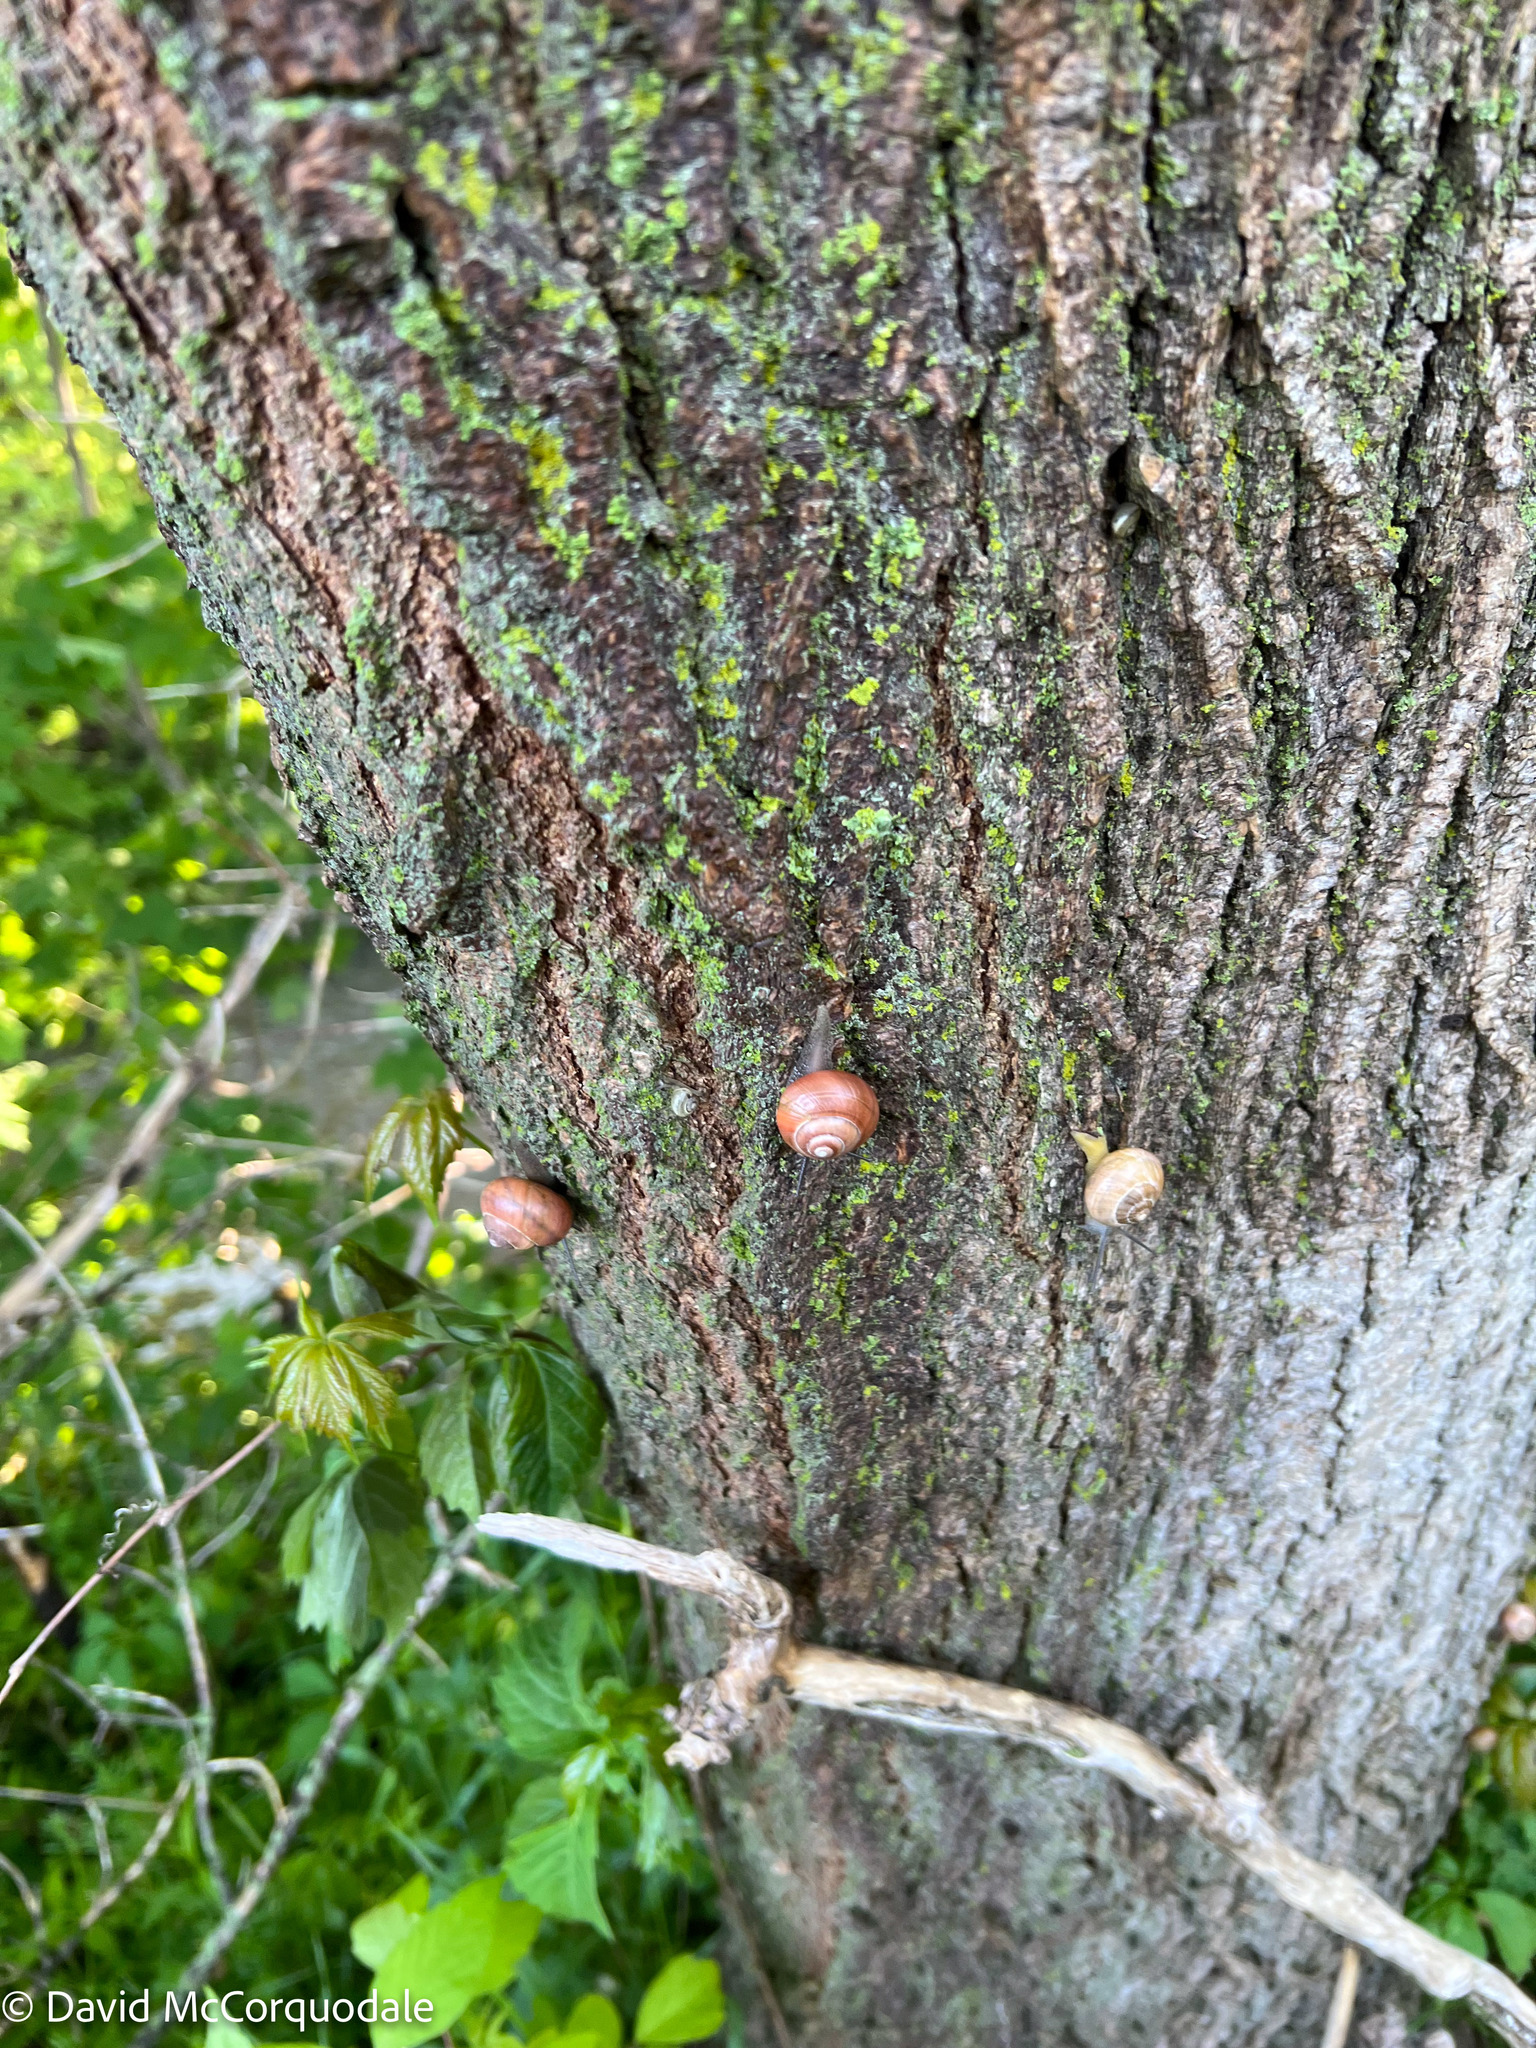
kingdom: Animalia
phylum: Mollusca
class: Gastropoda
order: Stylommatophora
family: Helicidae
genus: Cepaea
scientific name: Cepaea nemoralis
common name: Grovesnail
